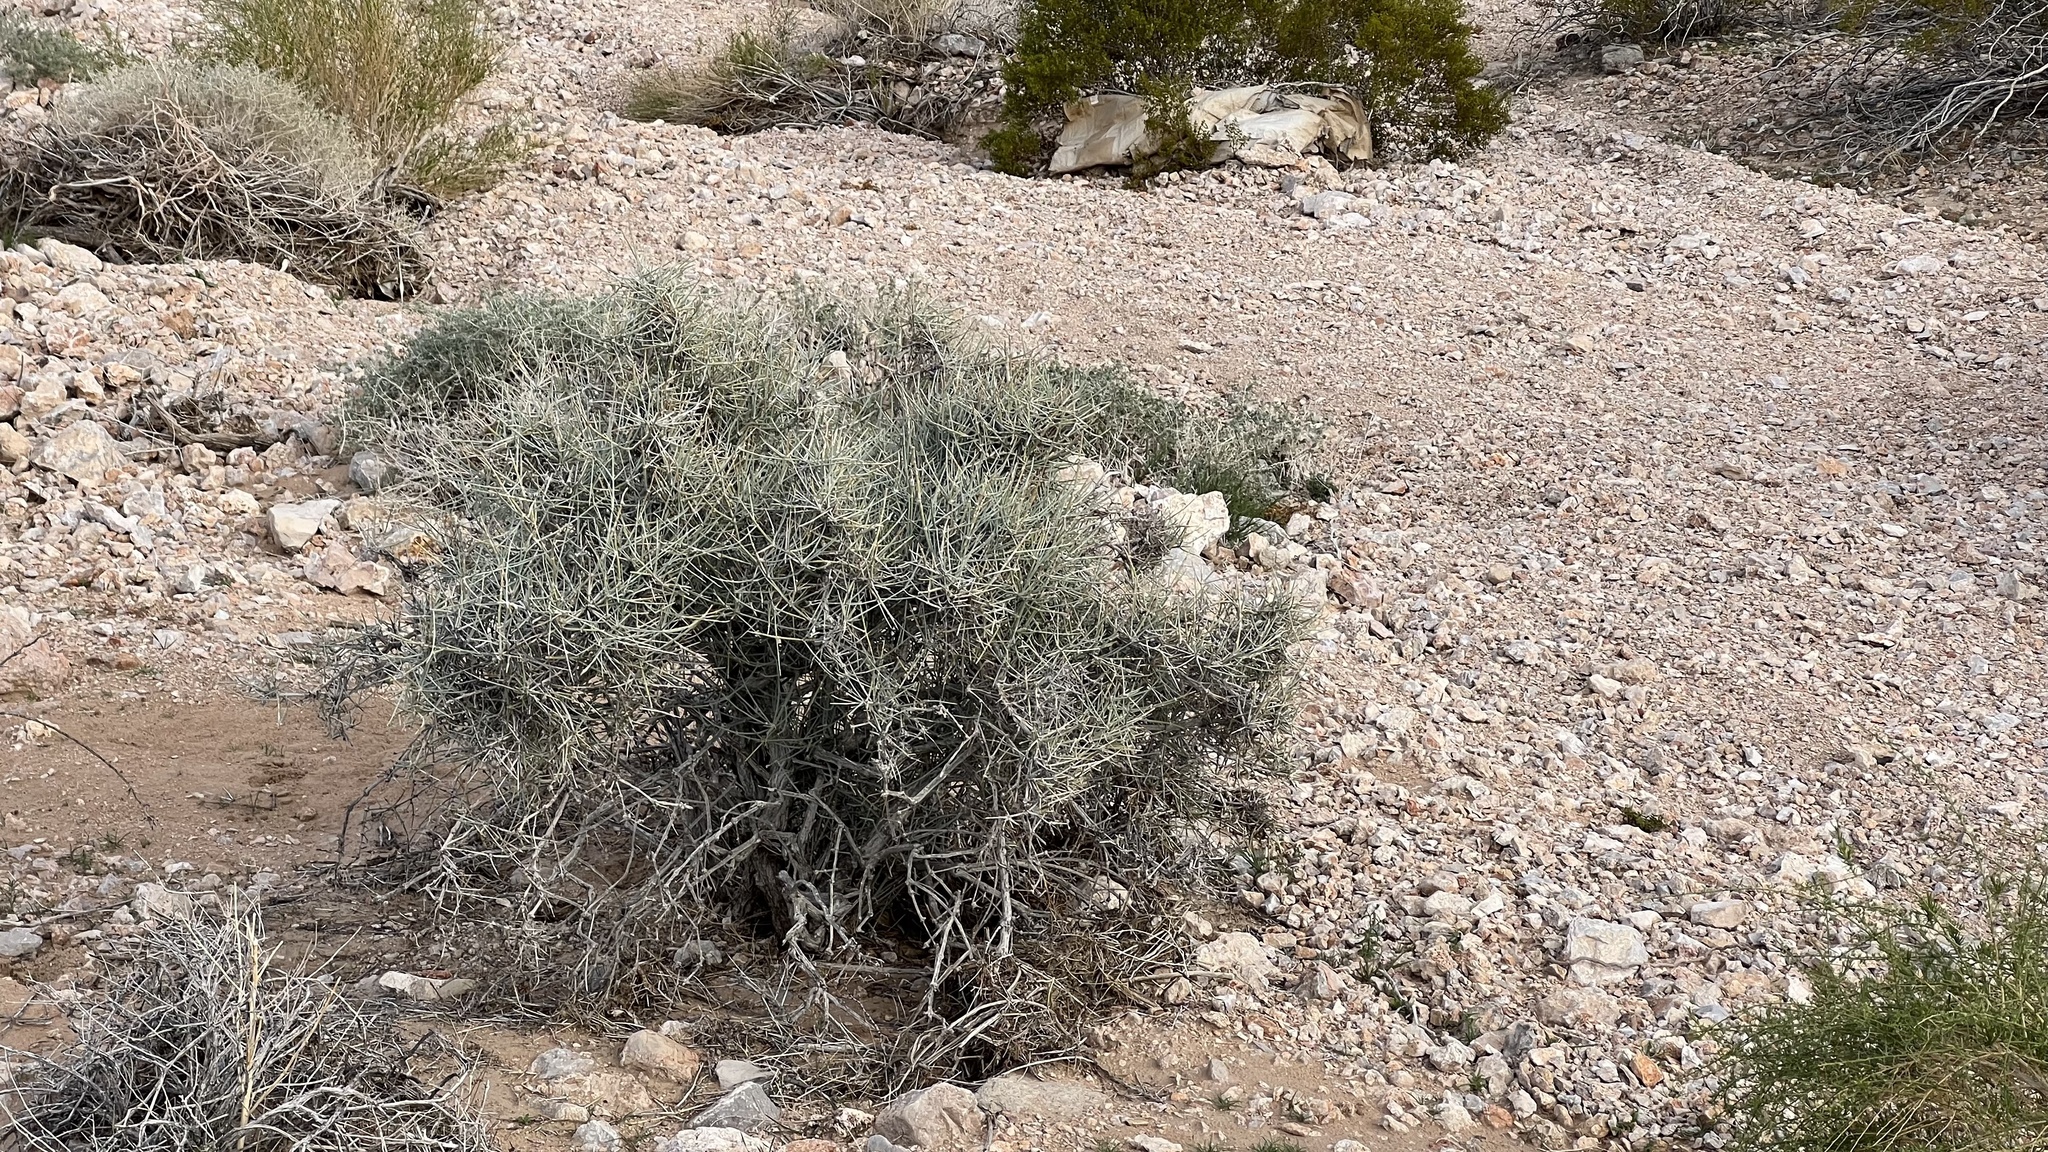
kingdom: Plantae
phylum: Tracheophyta
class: Gnetopsida
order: Ephedrales
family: Ephedraceae
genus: Ephedra
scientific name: Ephedra nevadensis
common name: Gray ephedra
